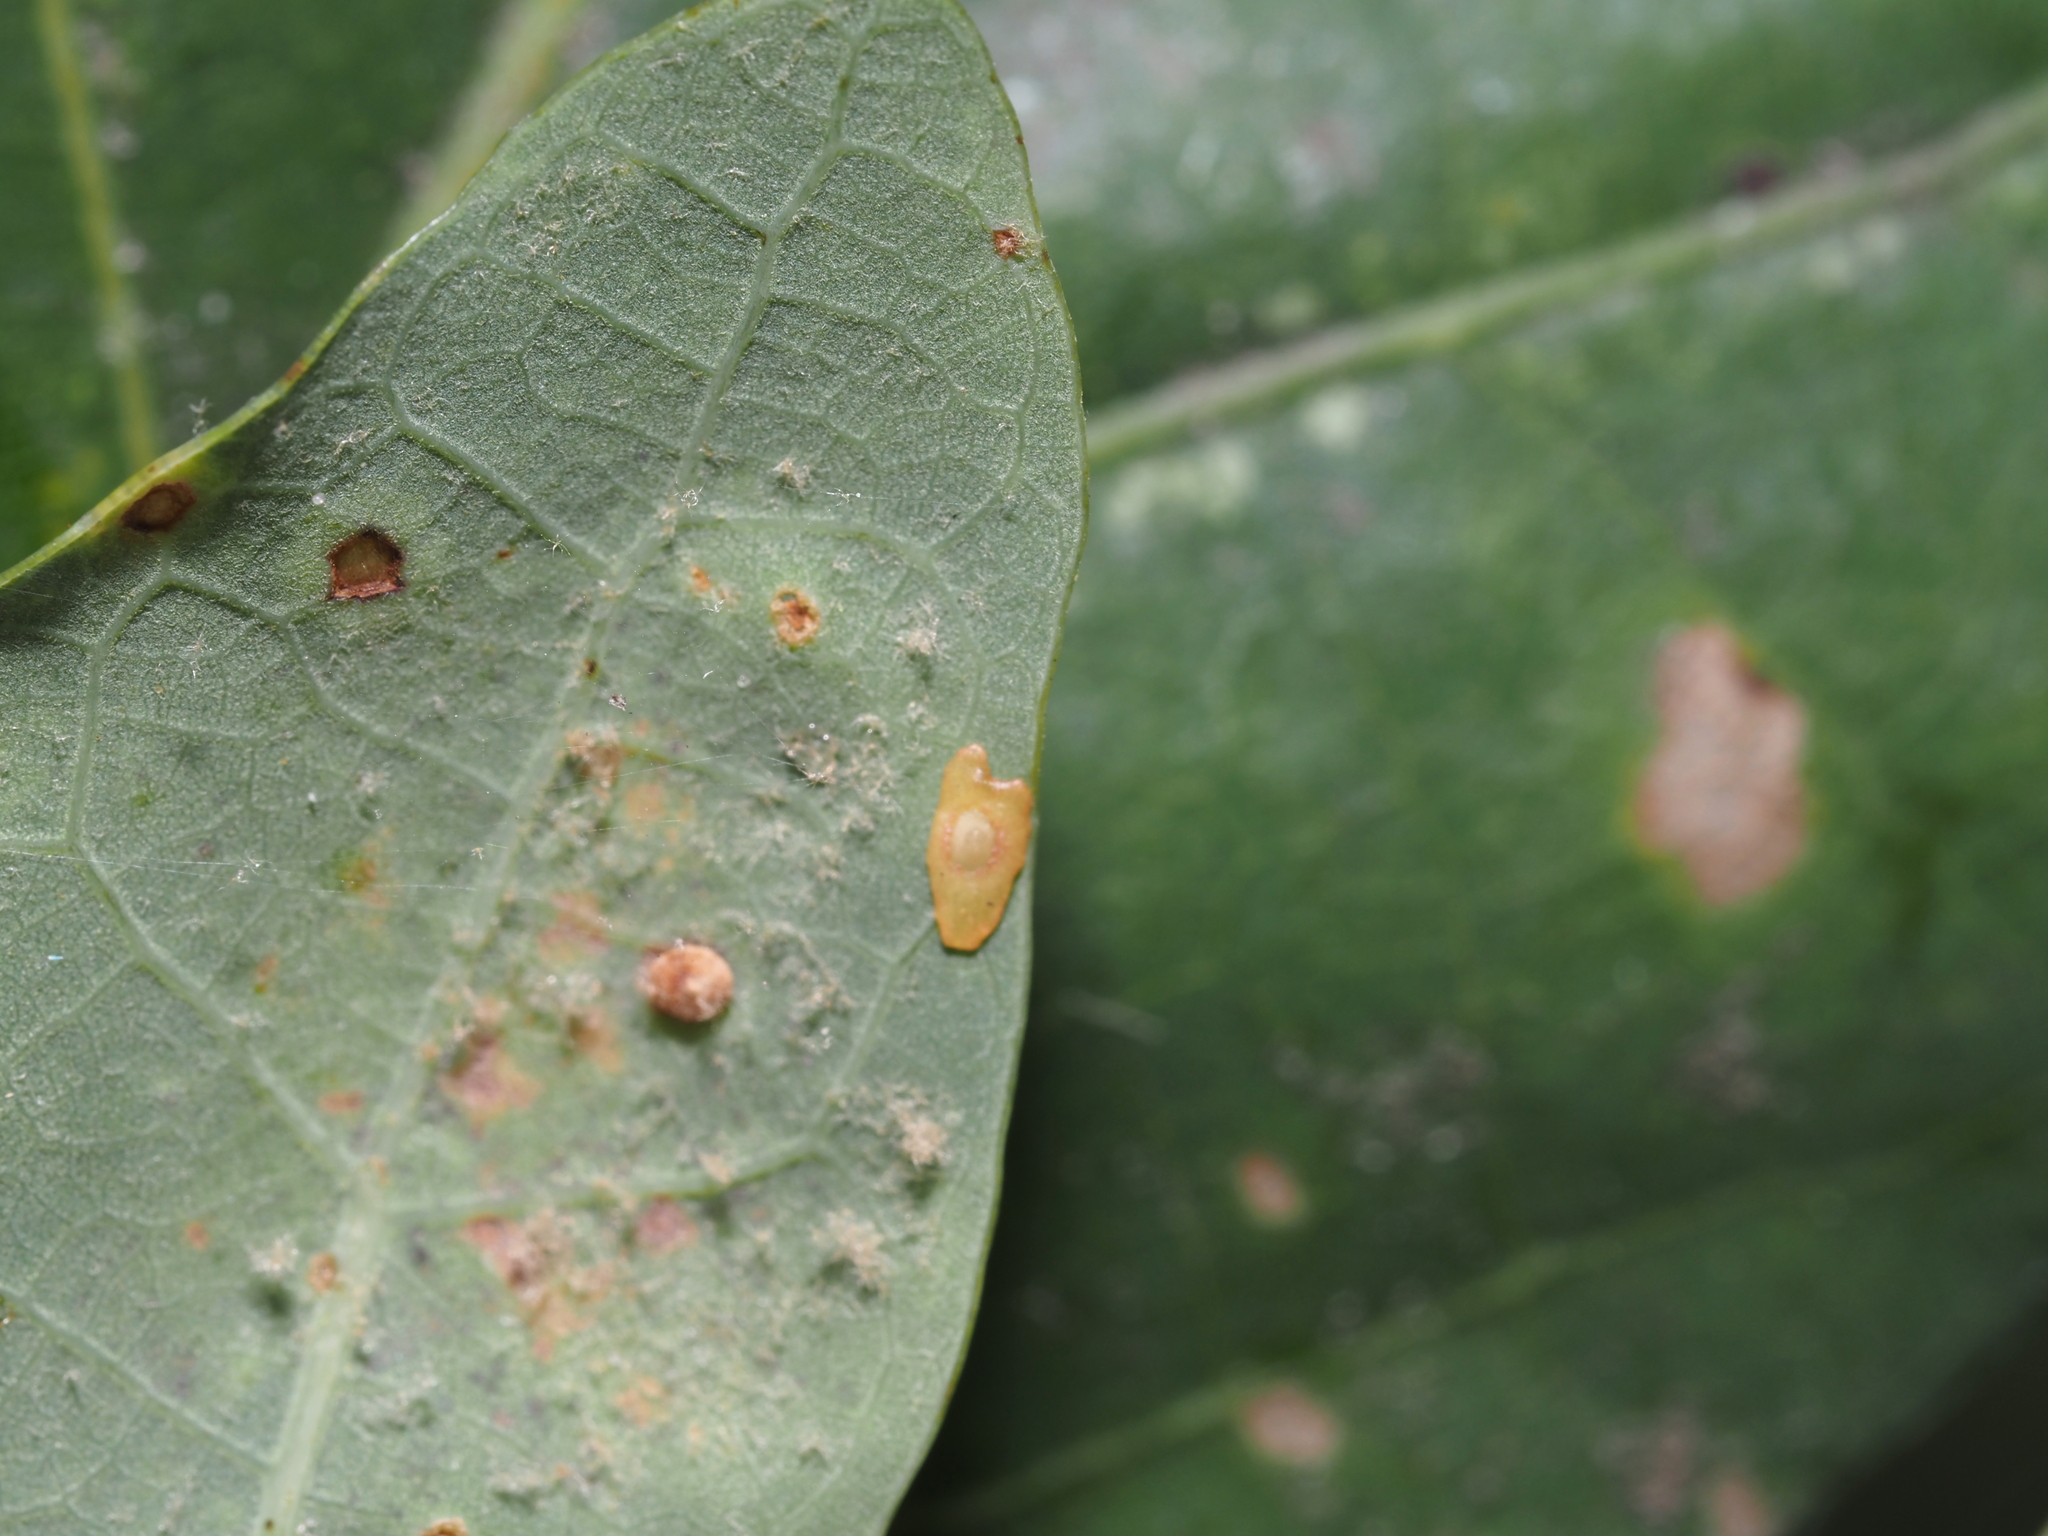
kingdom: Animalia
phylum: Arthropoda
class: Insecta
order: Hymenoptera
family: Cynipidae
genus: Phylloteras
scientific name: Phylloteras
